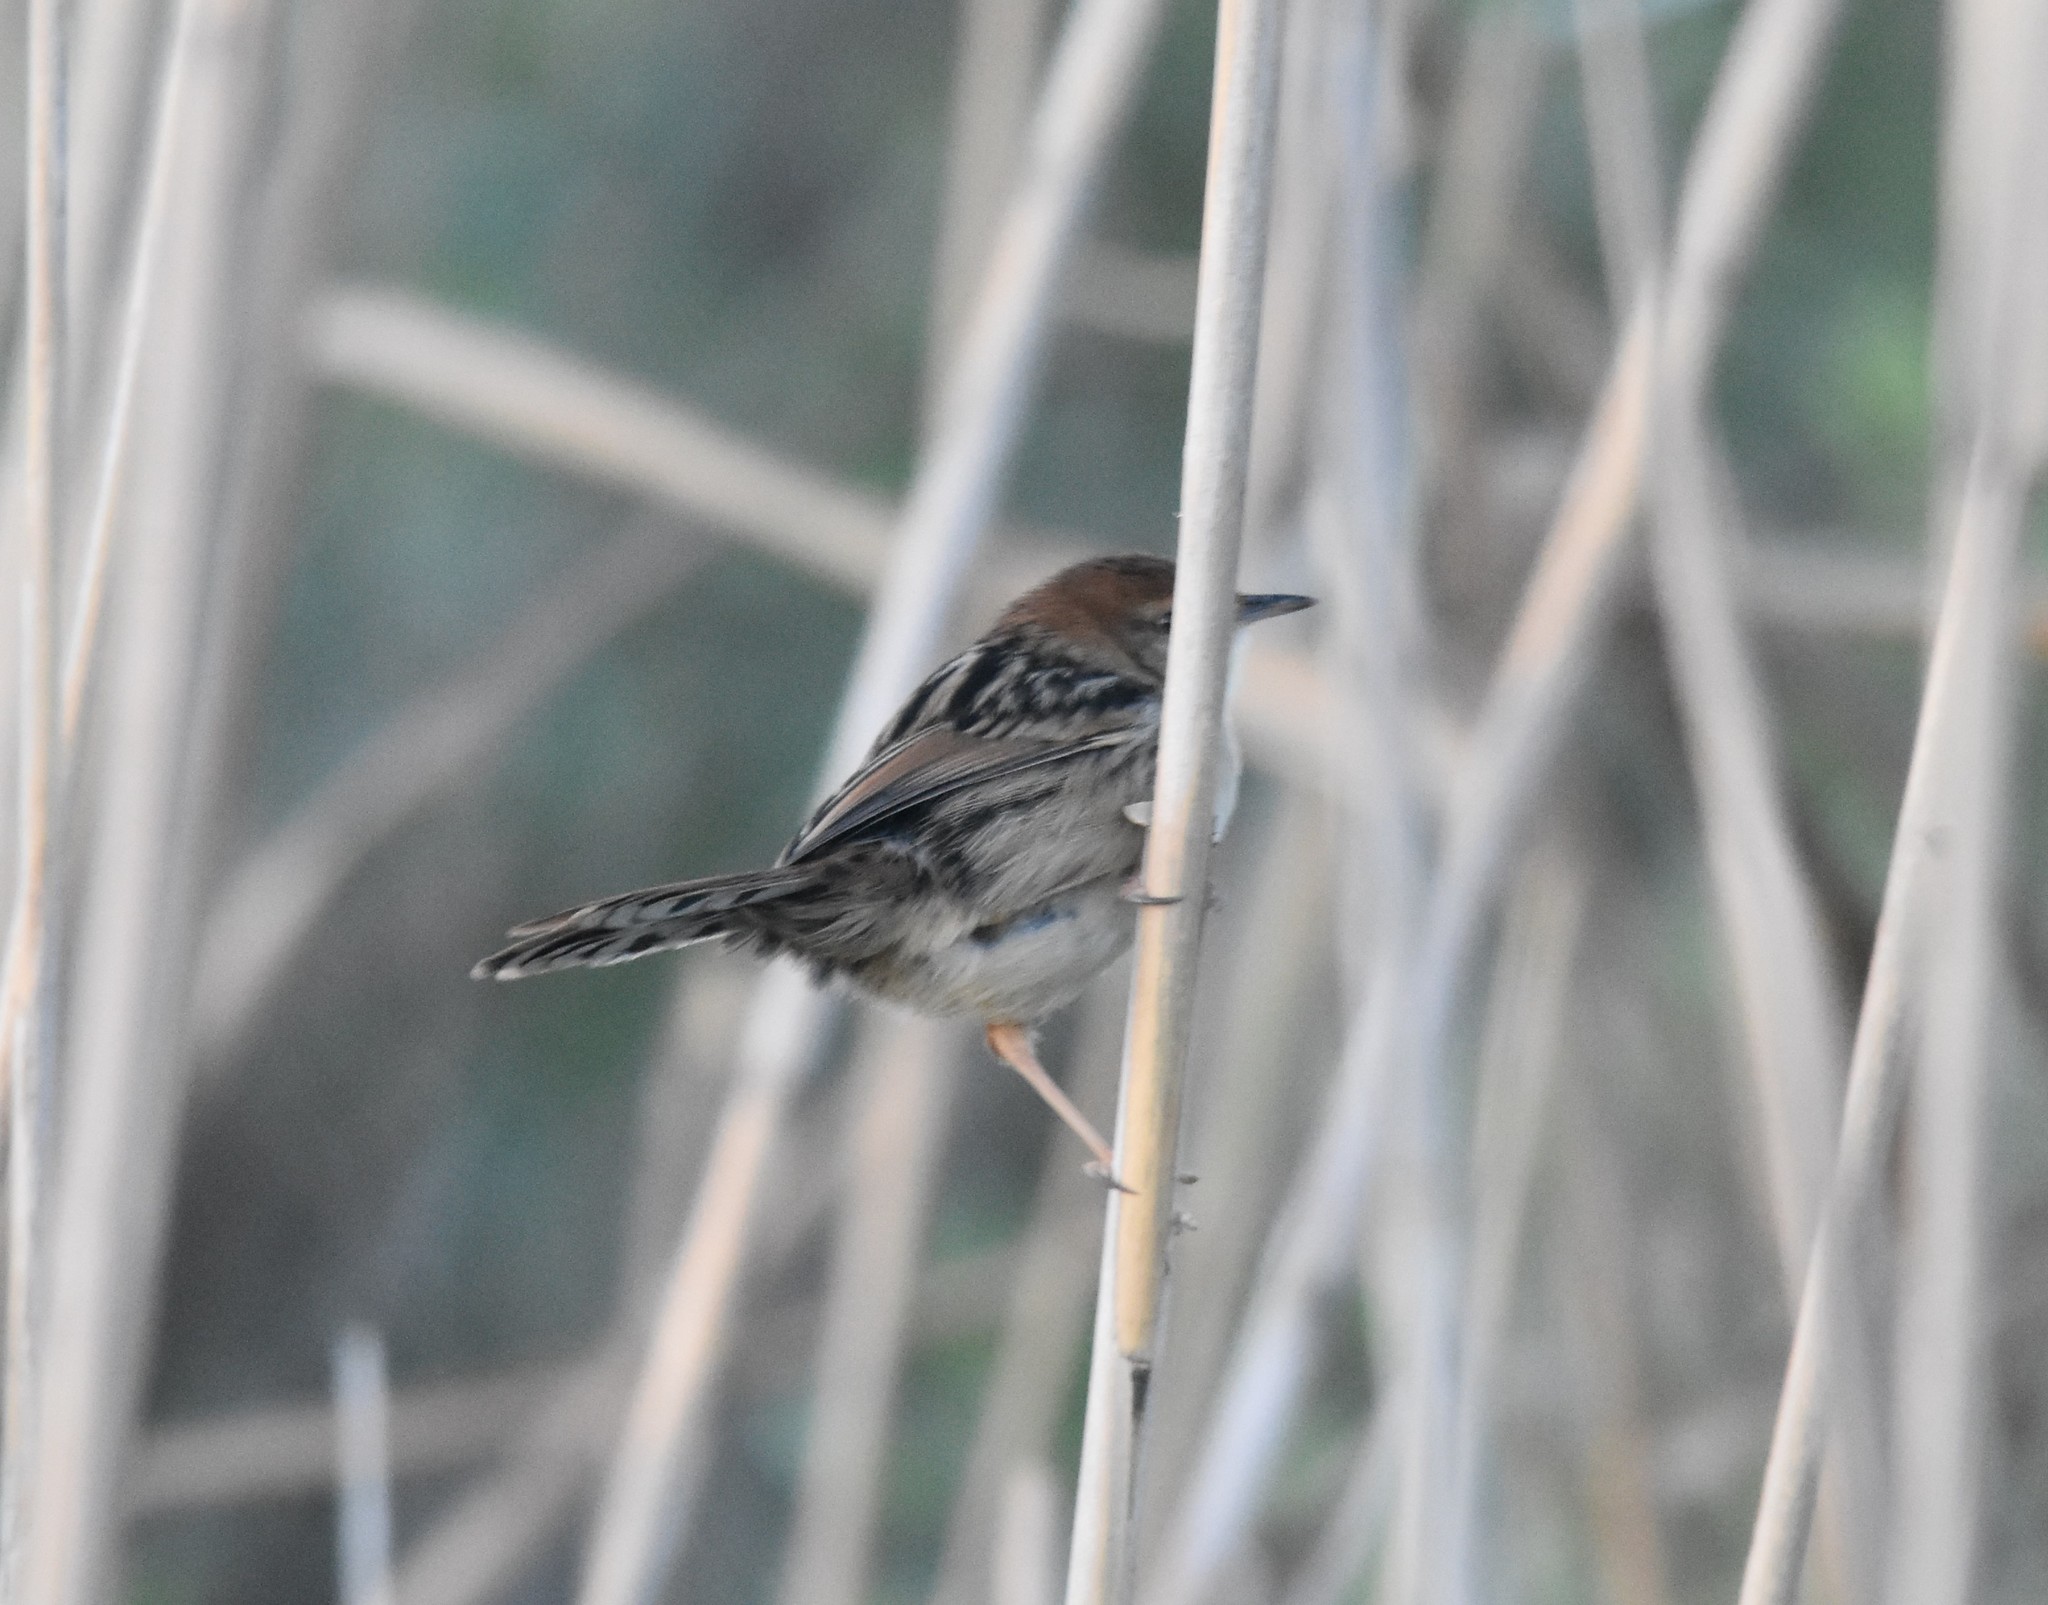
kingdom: Animalia
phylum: Chordata
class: Aves
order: Passeriformes
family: Cisticolidae
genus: Cisticola
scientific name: Cisticola tinniens
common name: Levaillant's cisticola
